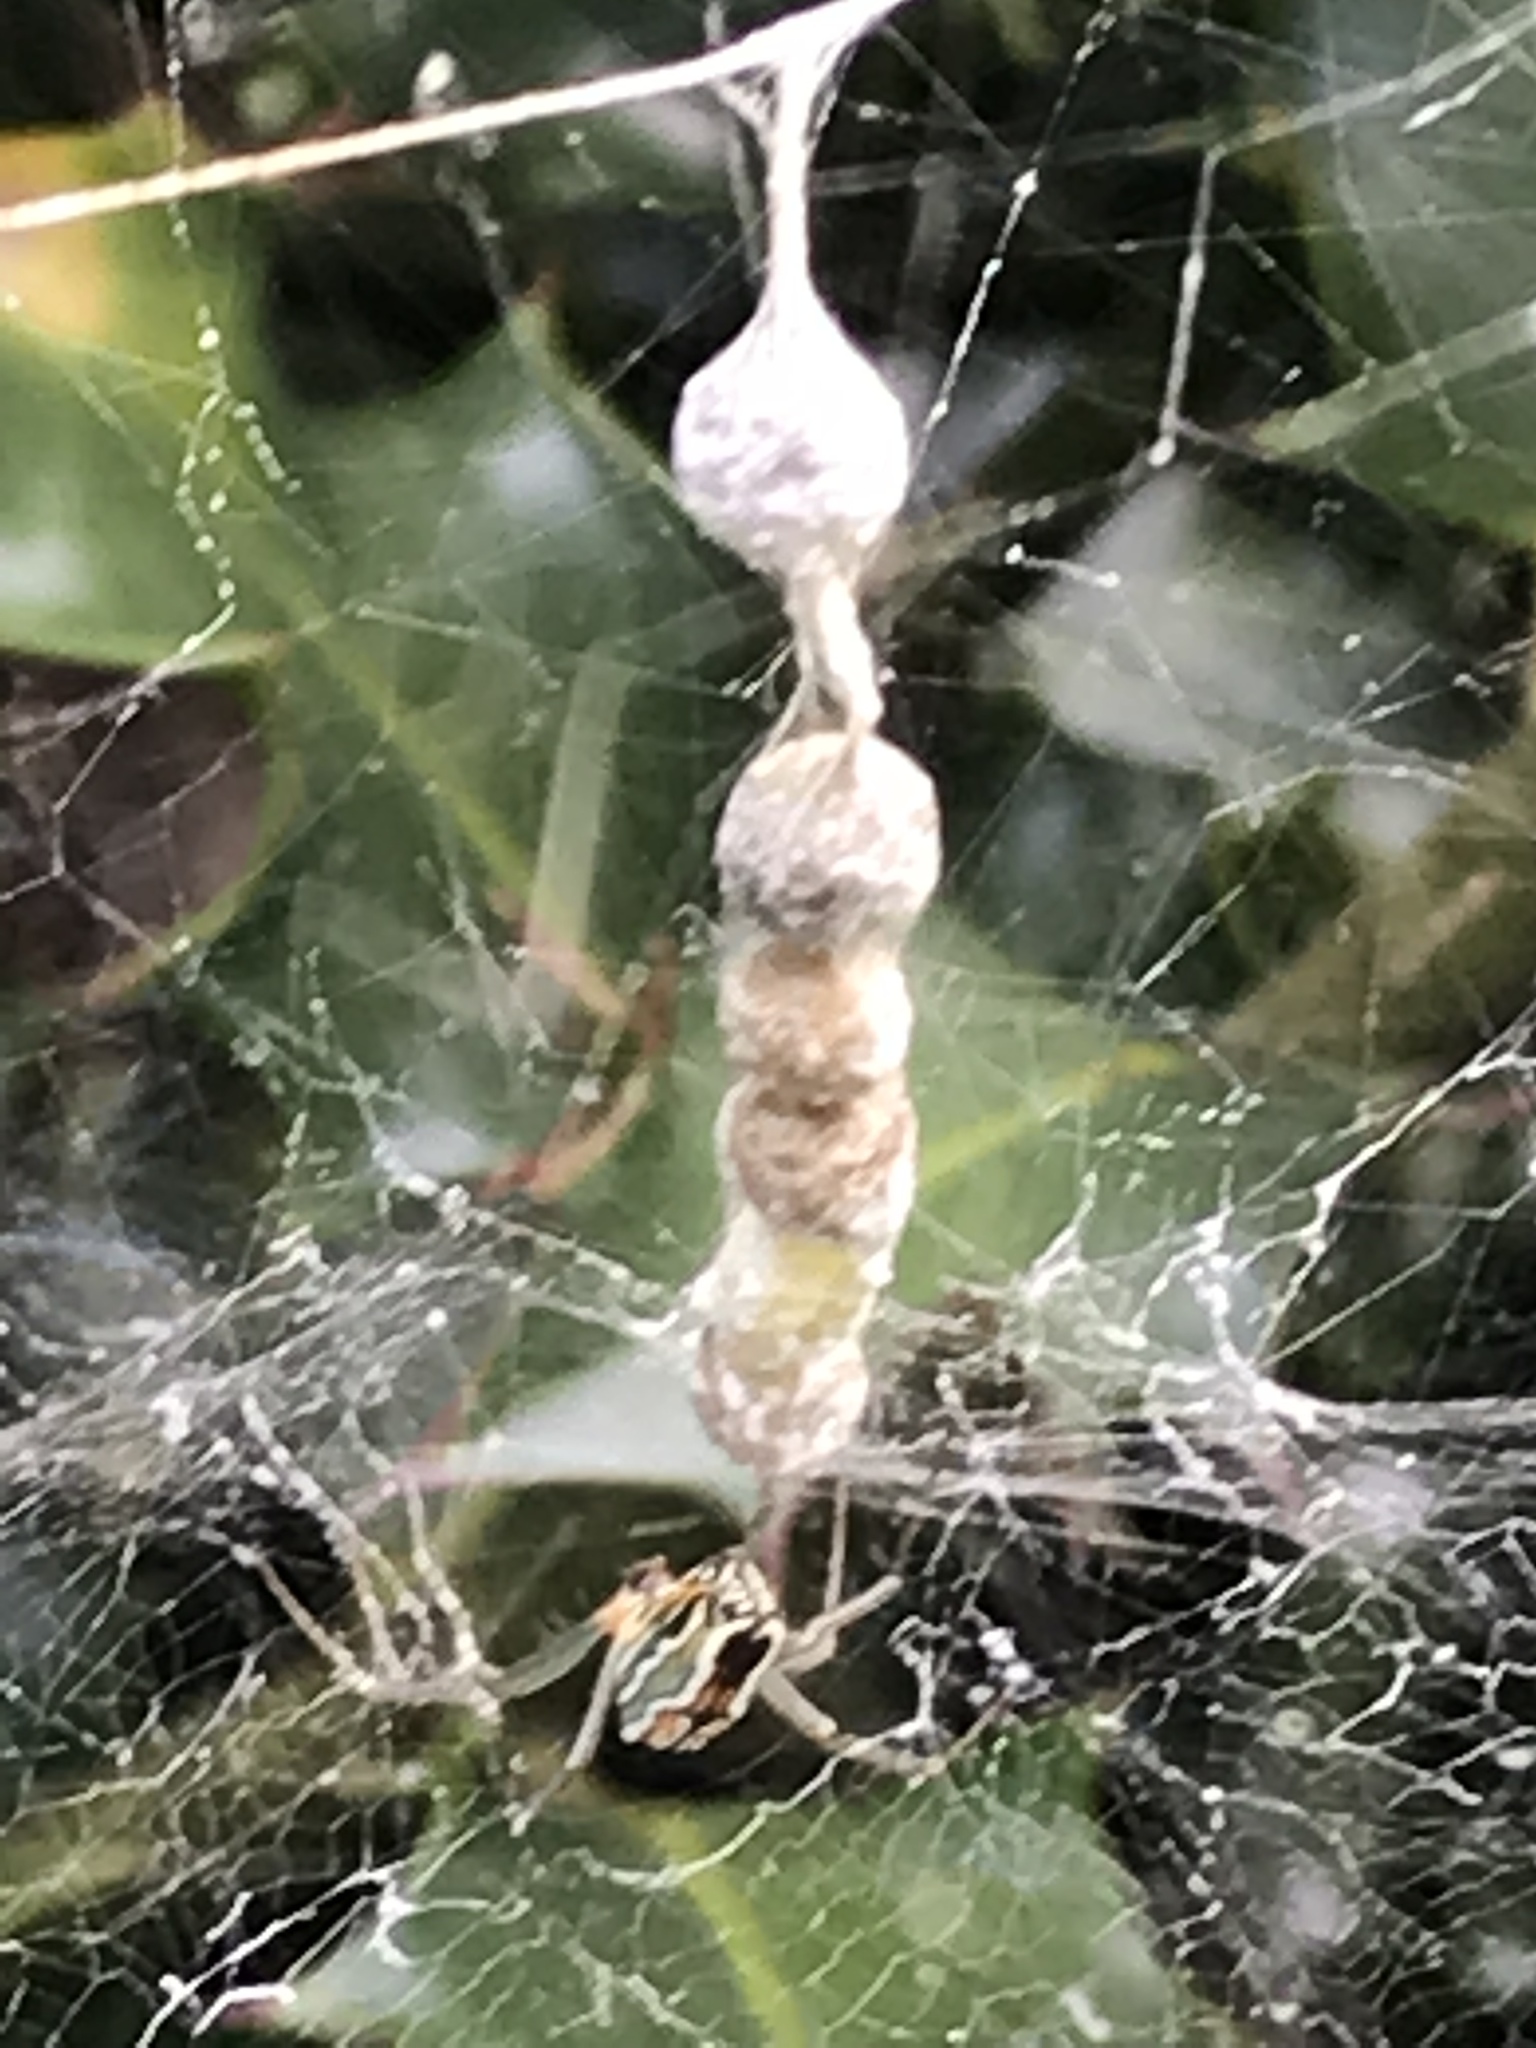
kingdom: Animalia
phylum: Arthropoda
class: Arachnida
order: Araneae
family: Araneidae
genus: Mecynogea
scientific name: Mecynogea lemniscata
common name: Orb weavers
